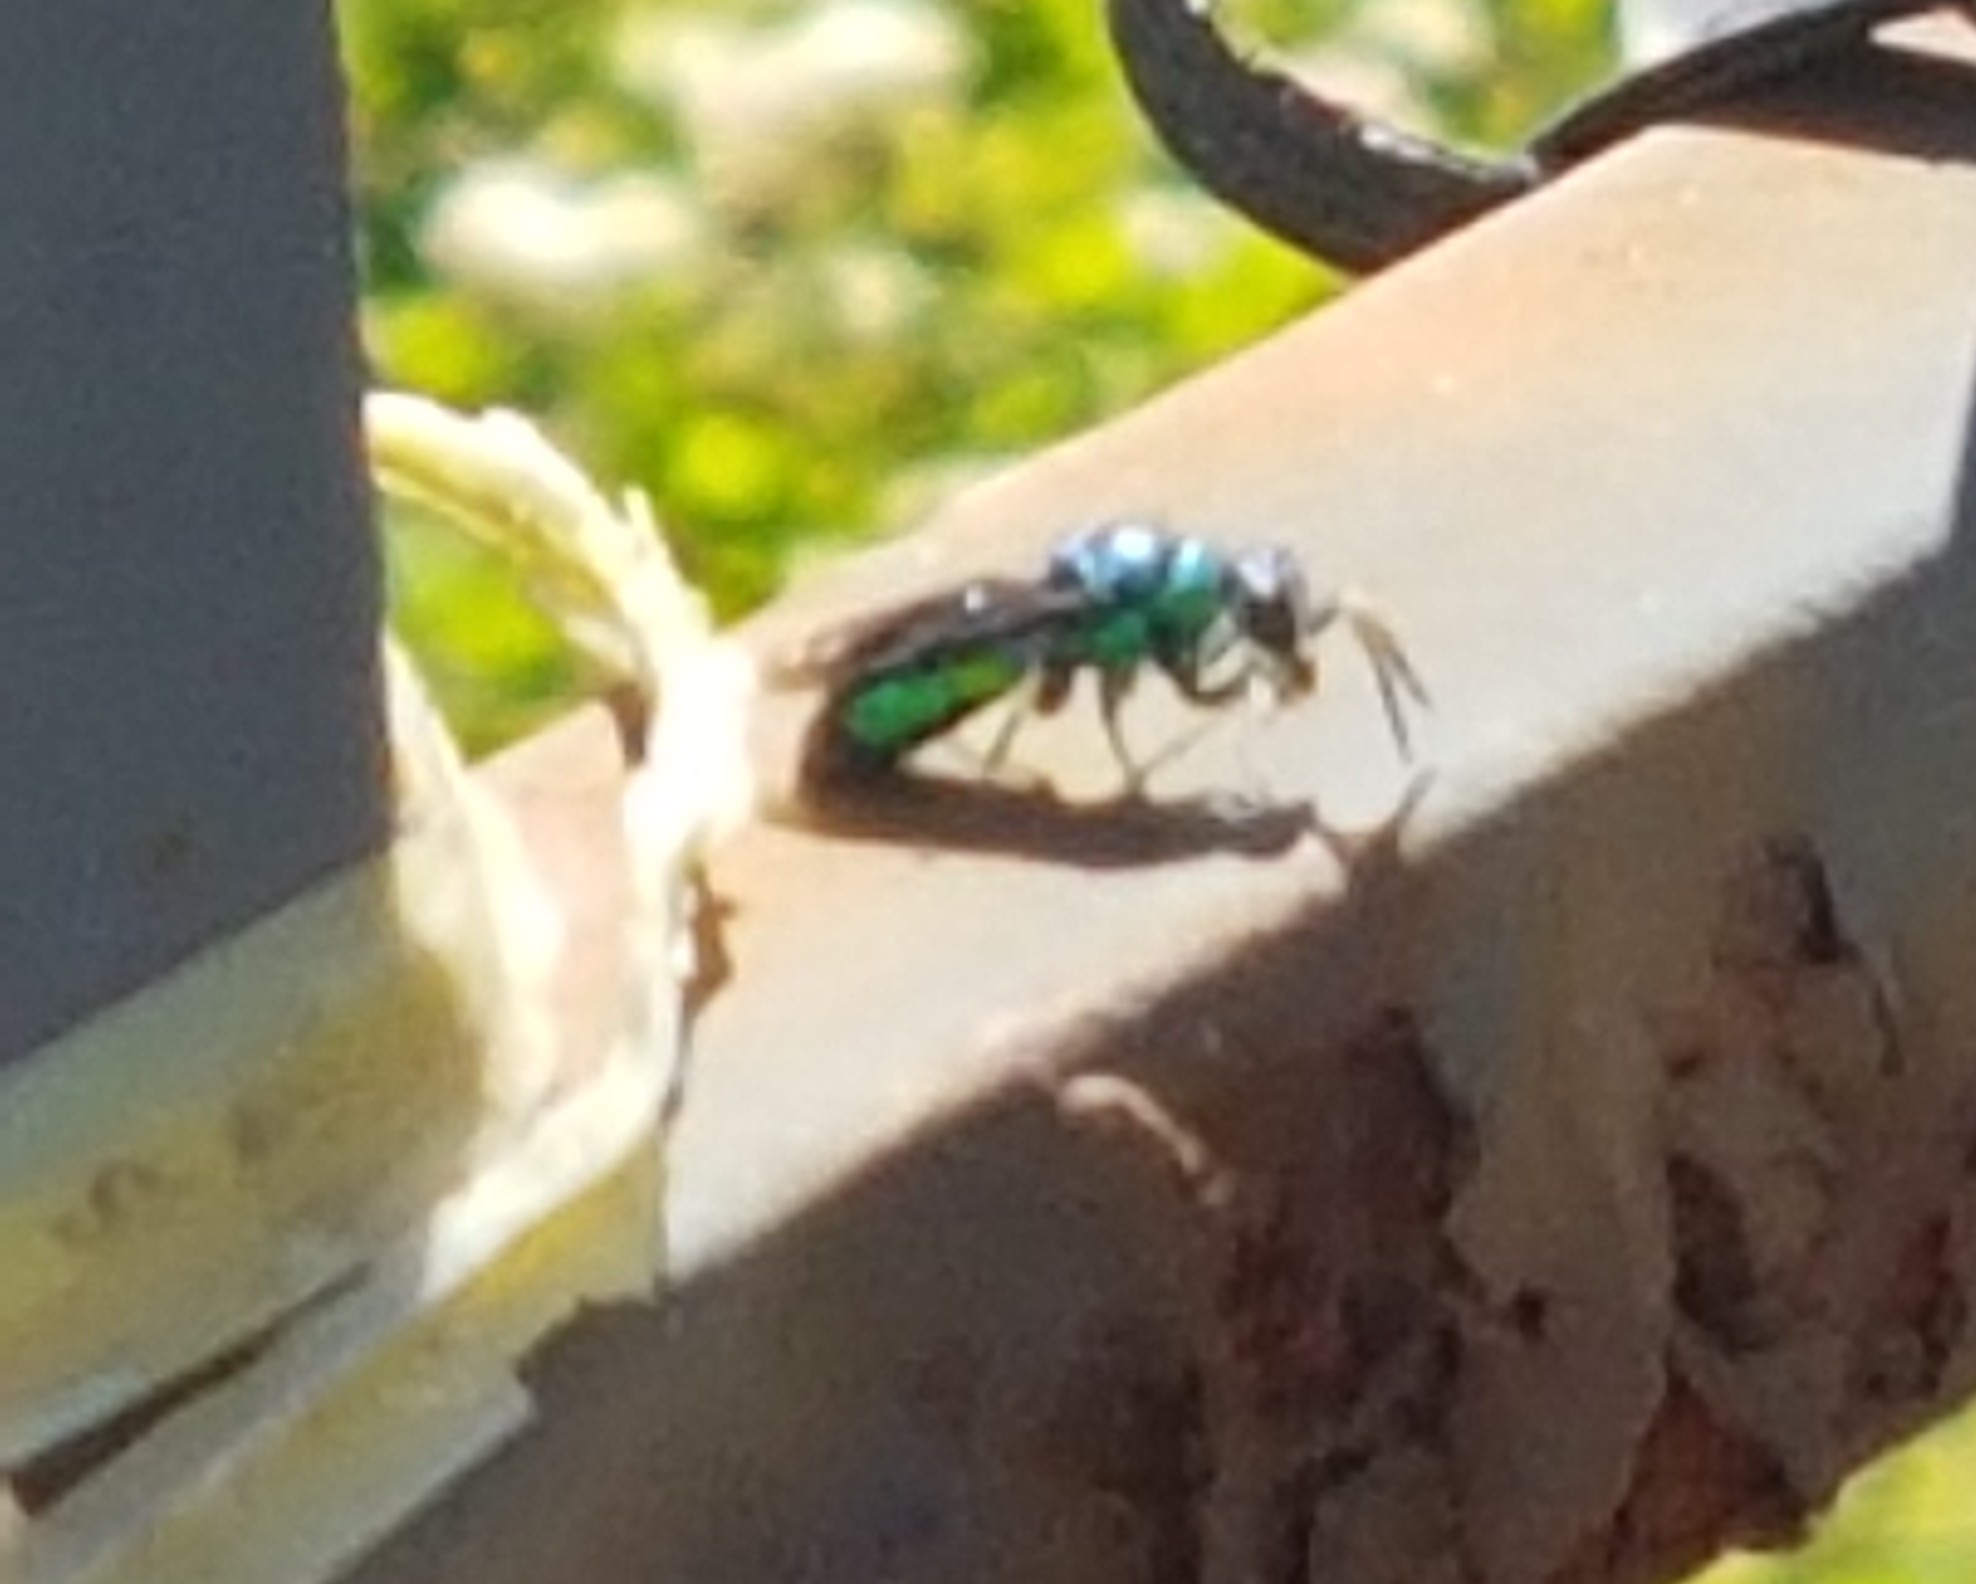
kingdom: Animalia
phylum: Arthropoda
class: Insecta
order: Hymenoptera
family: Chrysididae
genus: Chrysis
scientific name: Chrysis angolensis
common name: Cuckoo wasp
